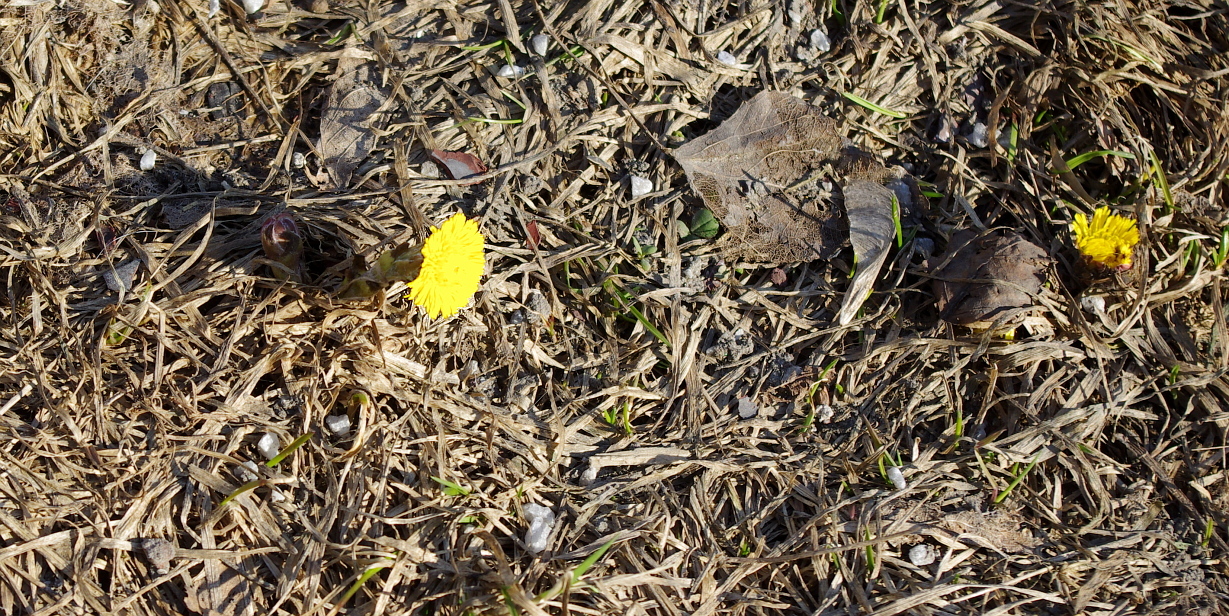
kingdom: Plantae
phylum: Tracheophyta
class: Magnoliopsida
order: Asterales
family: Asteraceae
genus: Tussilago
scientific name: Tussilago farfara
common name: Coltsfoot
